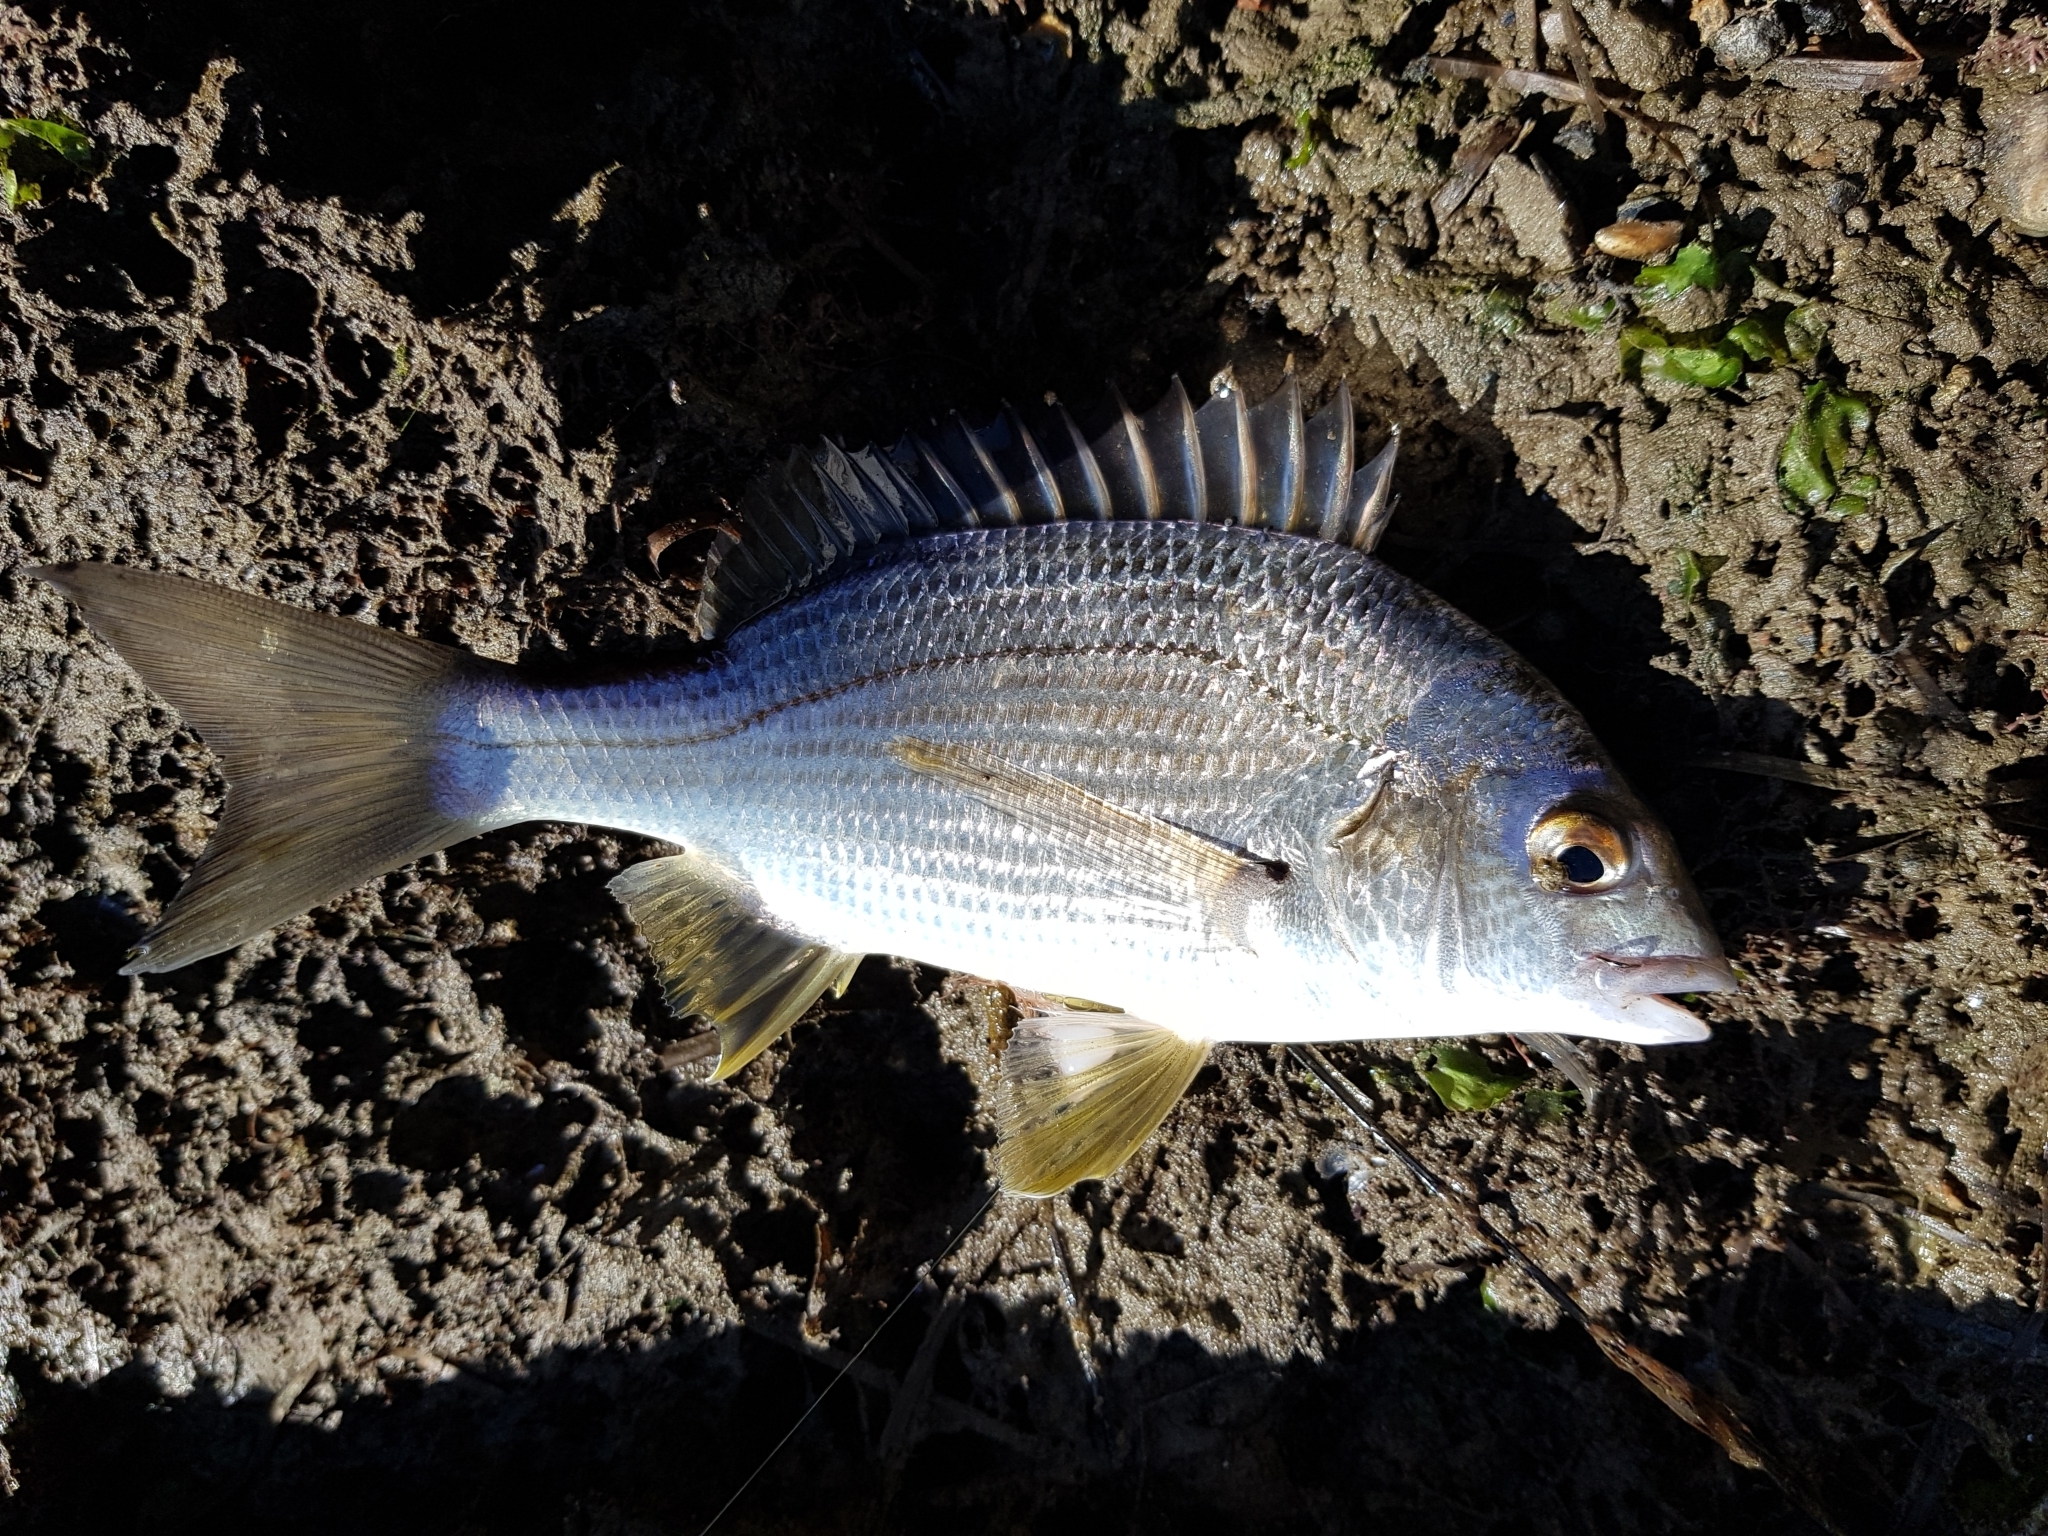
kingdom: Animalia
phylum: Chordata
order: Perciformes
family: Sparidae
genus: Acanthopagrus
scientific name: Acanthopagrus butcheri
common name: Black bream
